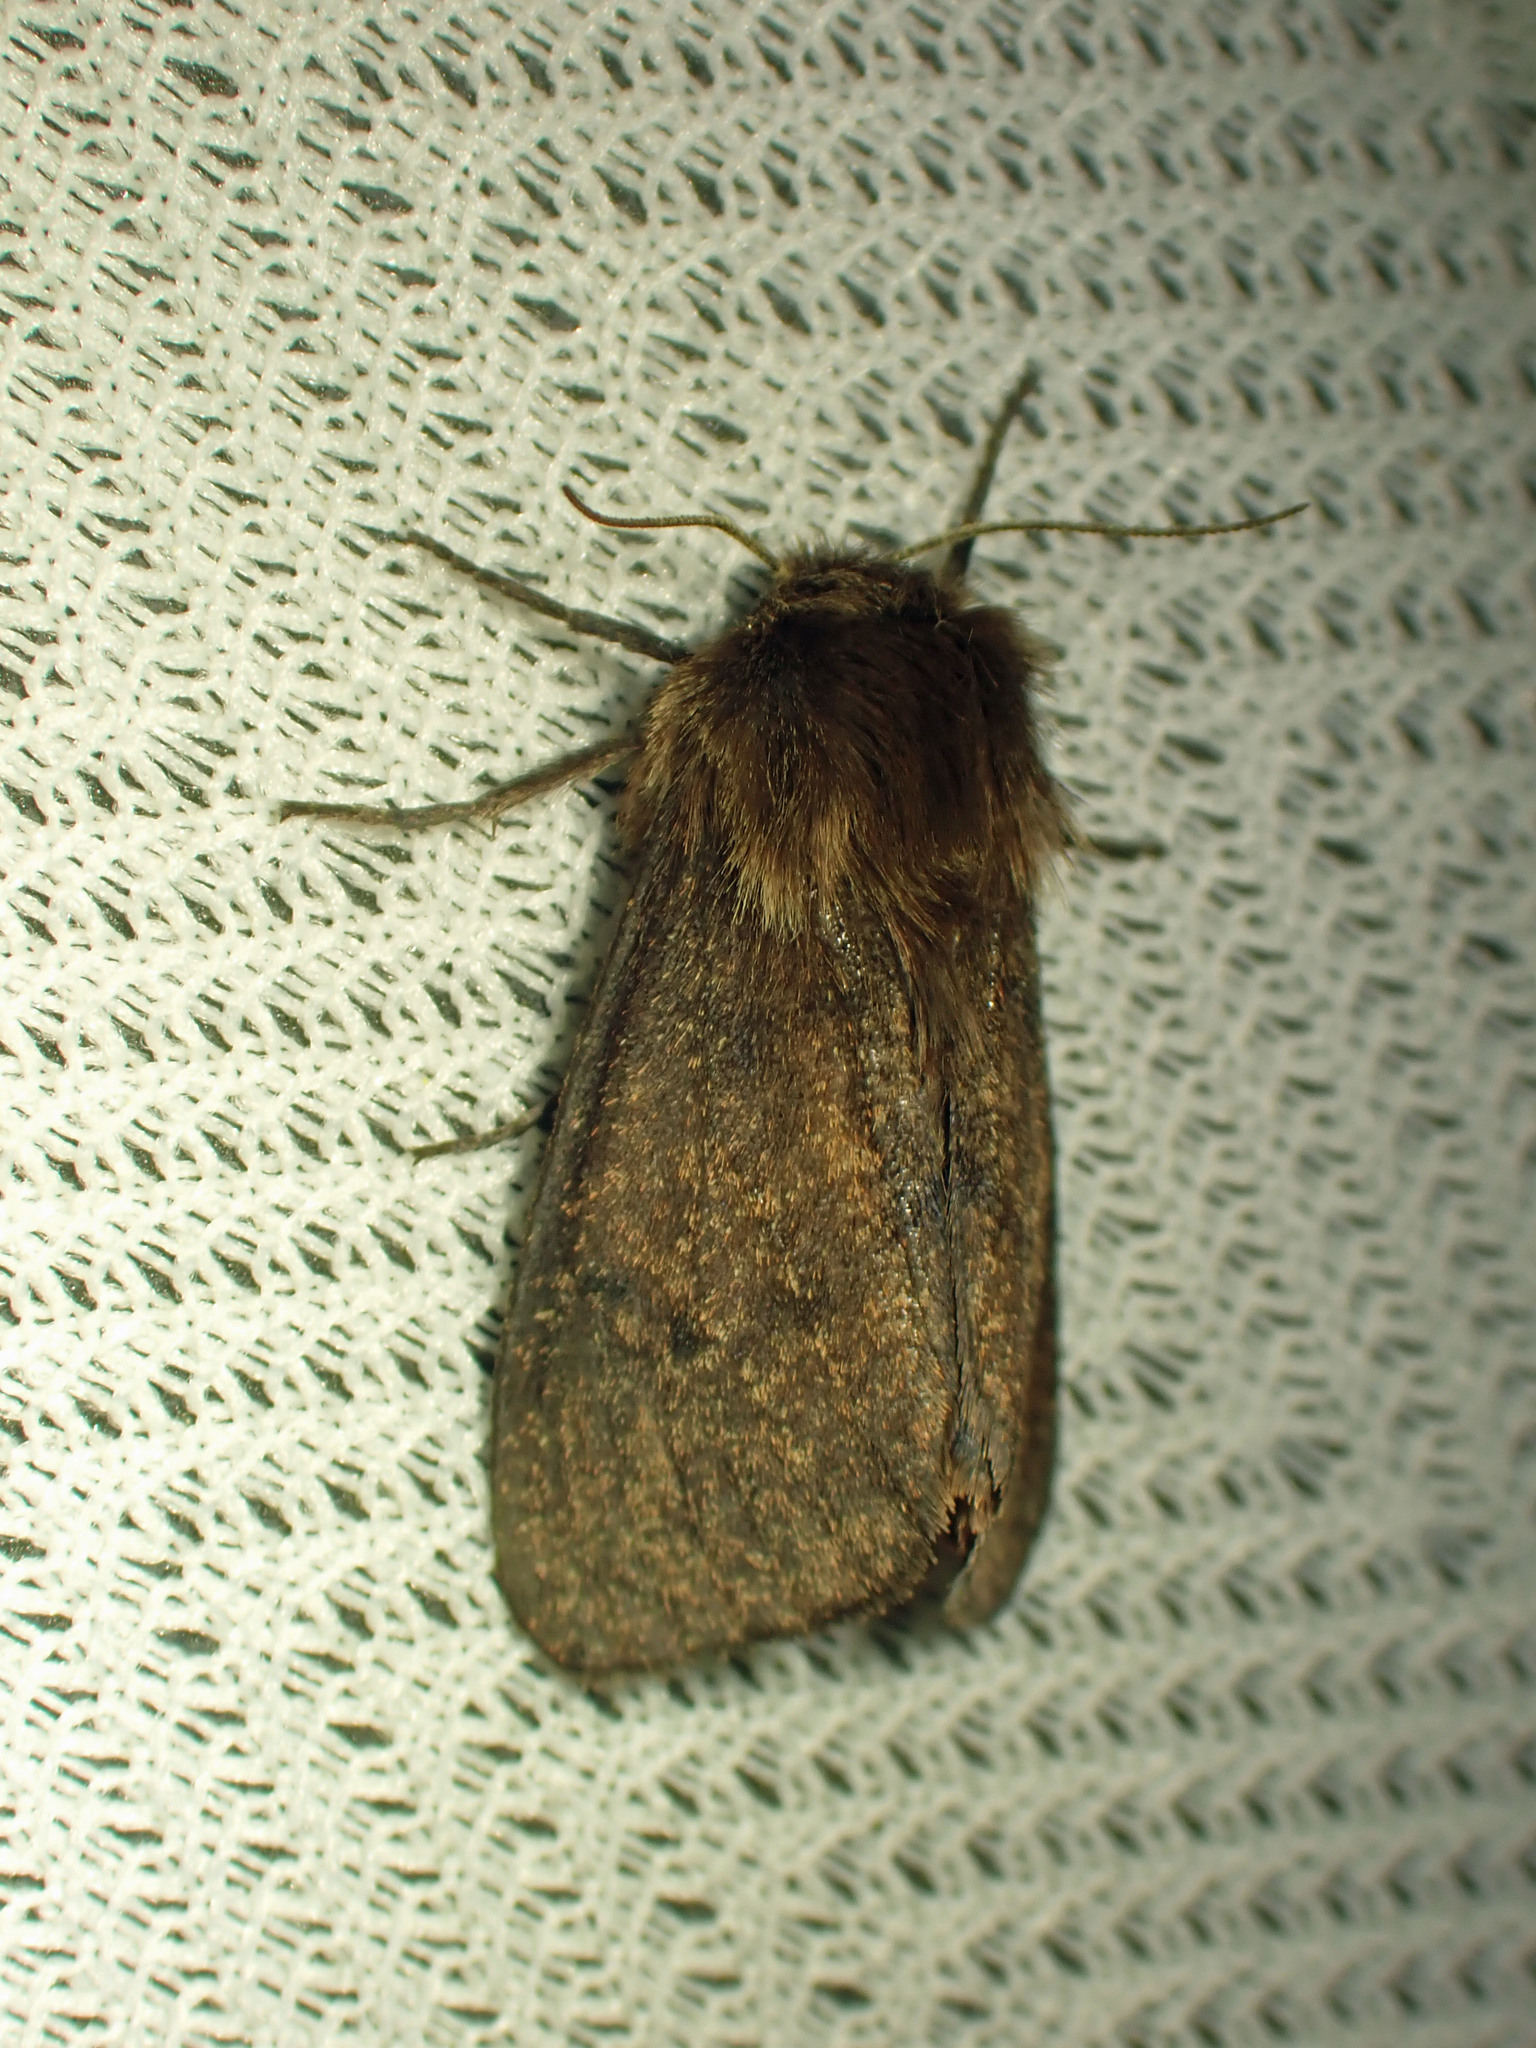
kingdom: Animalia
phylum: Arthropoda
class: Insecta
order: Lepidoptera
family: Erebidae
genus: Phragmatobia
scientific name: Phragmatobia assimilans
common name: Large ruby tiger moth
